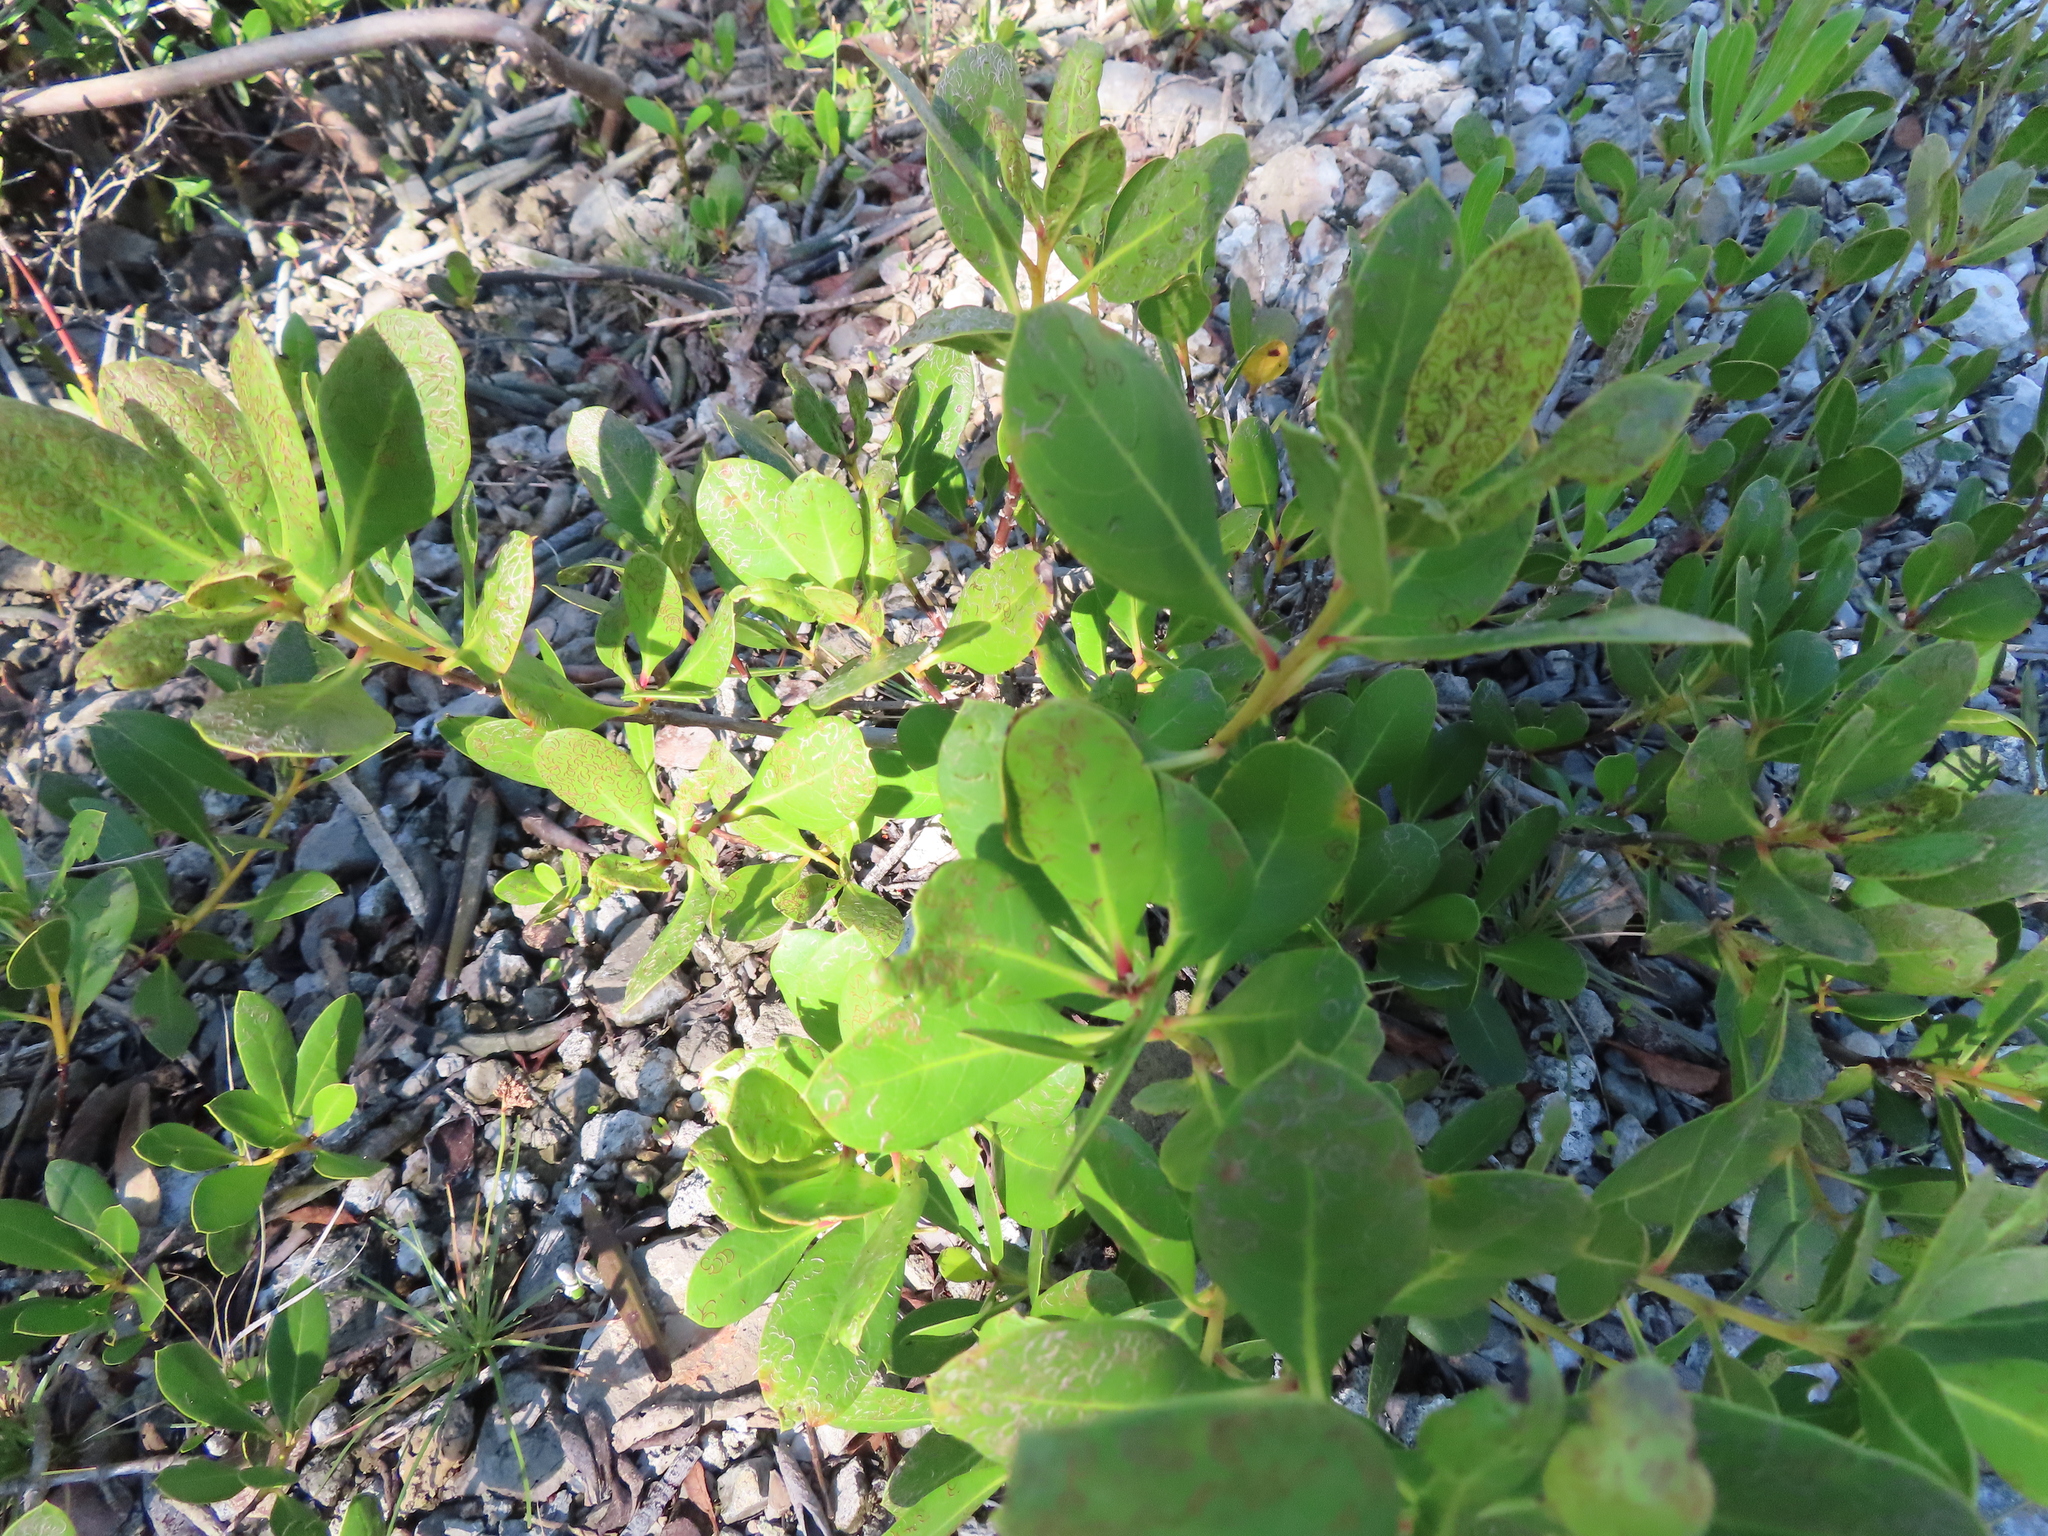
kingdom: Plantae
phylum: Tracheophyta
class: Magnoliopsida
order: Myrtales
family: Combretaceae
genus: Conocarpus
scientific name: Conocarpus erectus
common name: Button mangrove
